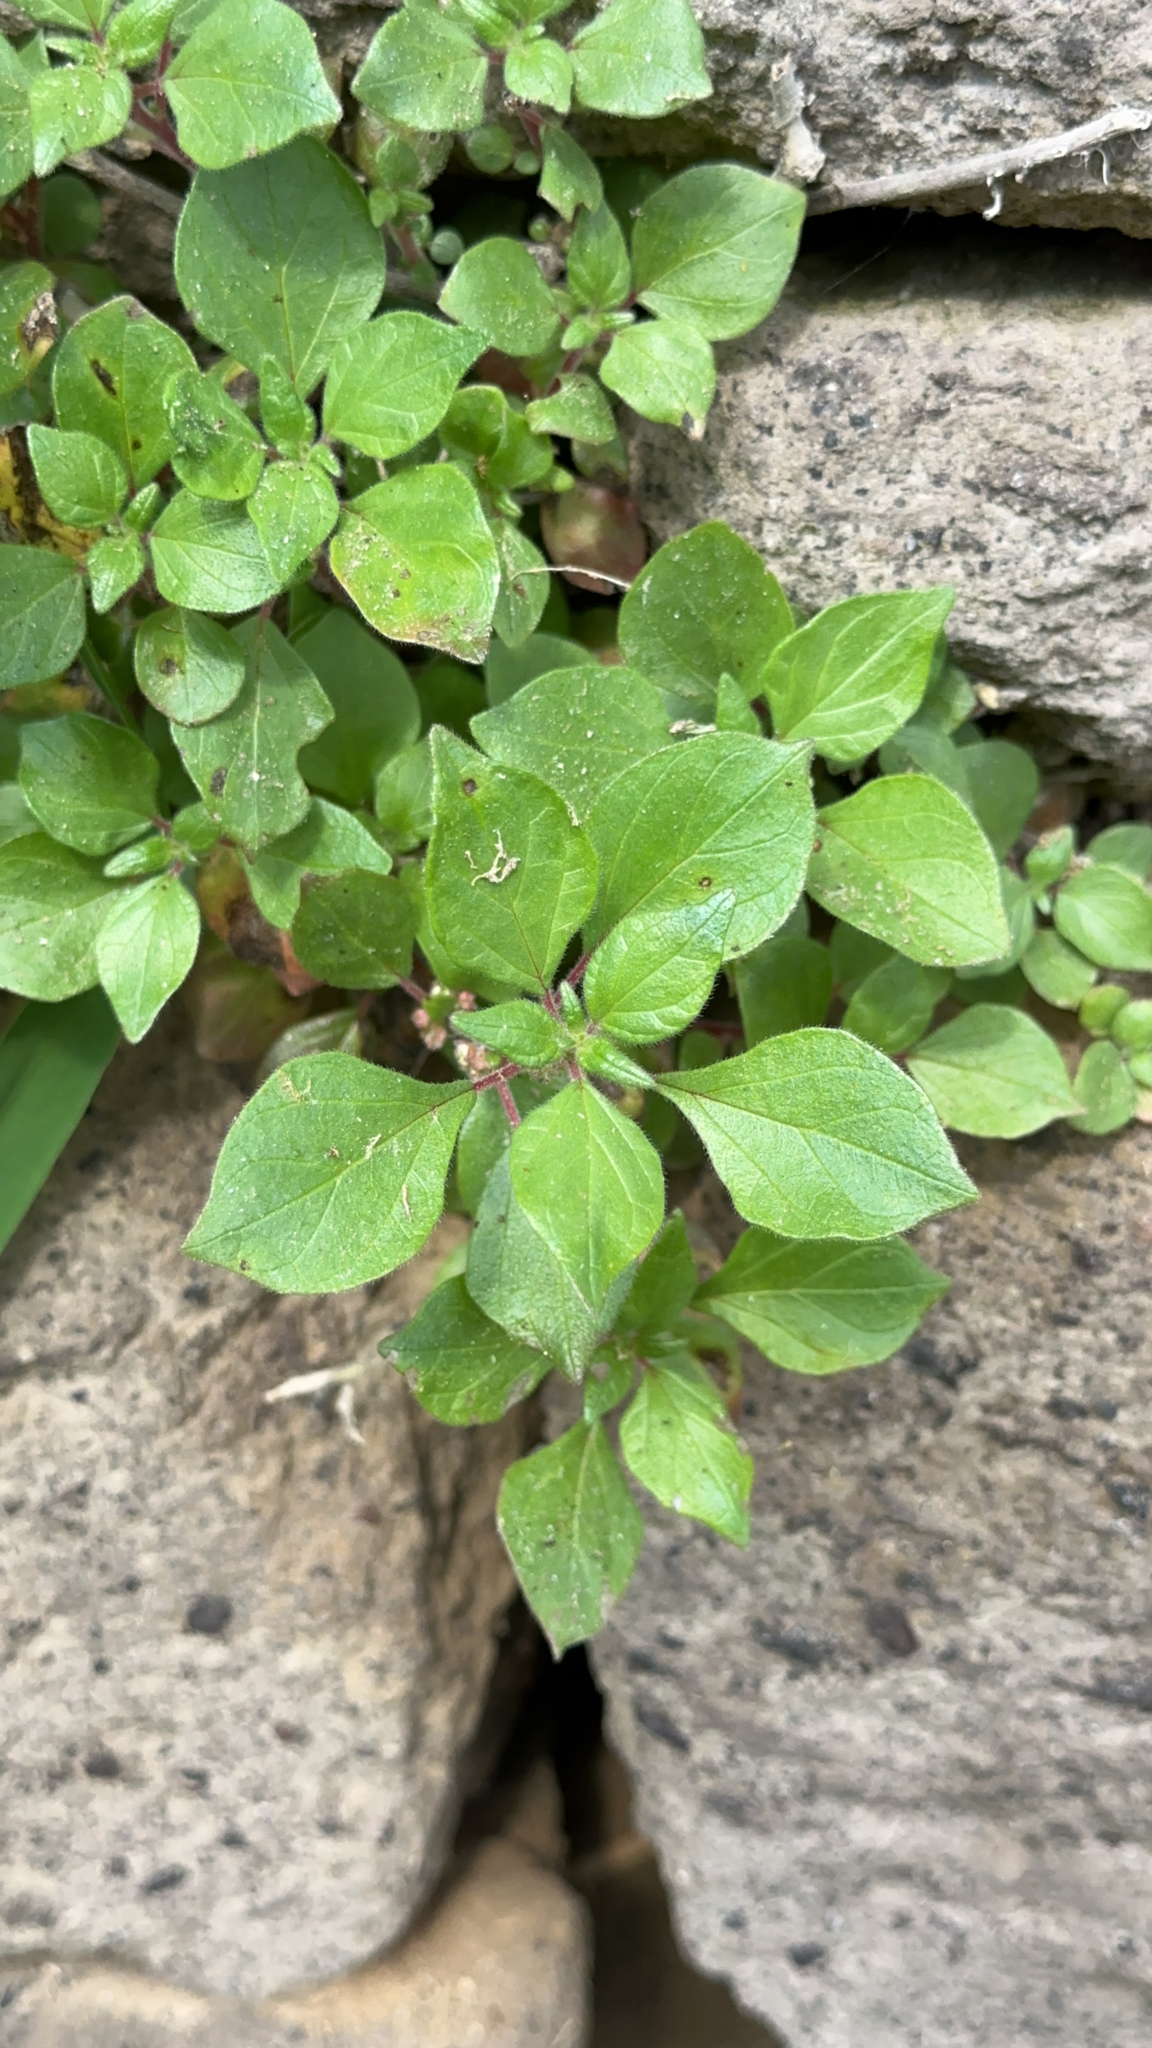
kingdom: Plantae
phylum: Tracheophyta
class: Magnoliopsida
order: Rosales
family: Urticaceae
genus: Parietaria
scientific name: Parietaria judaica
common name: Pellitory-of-the-wall
